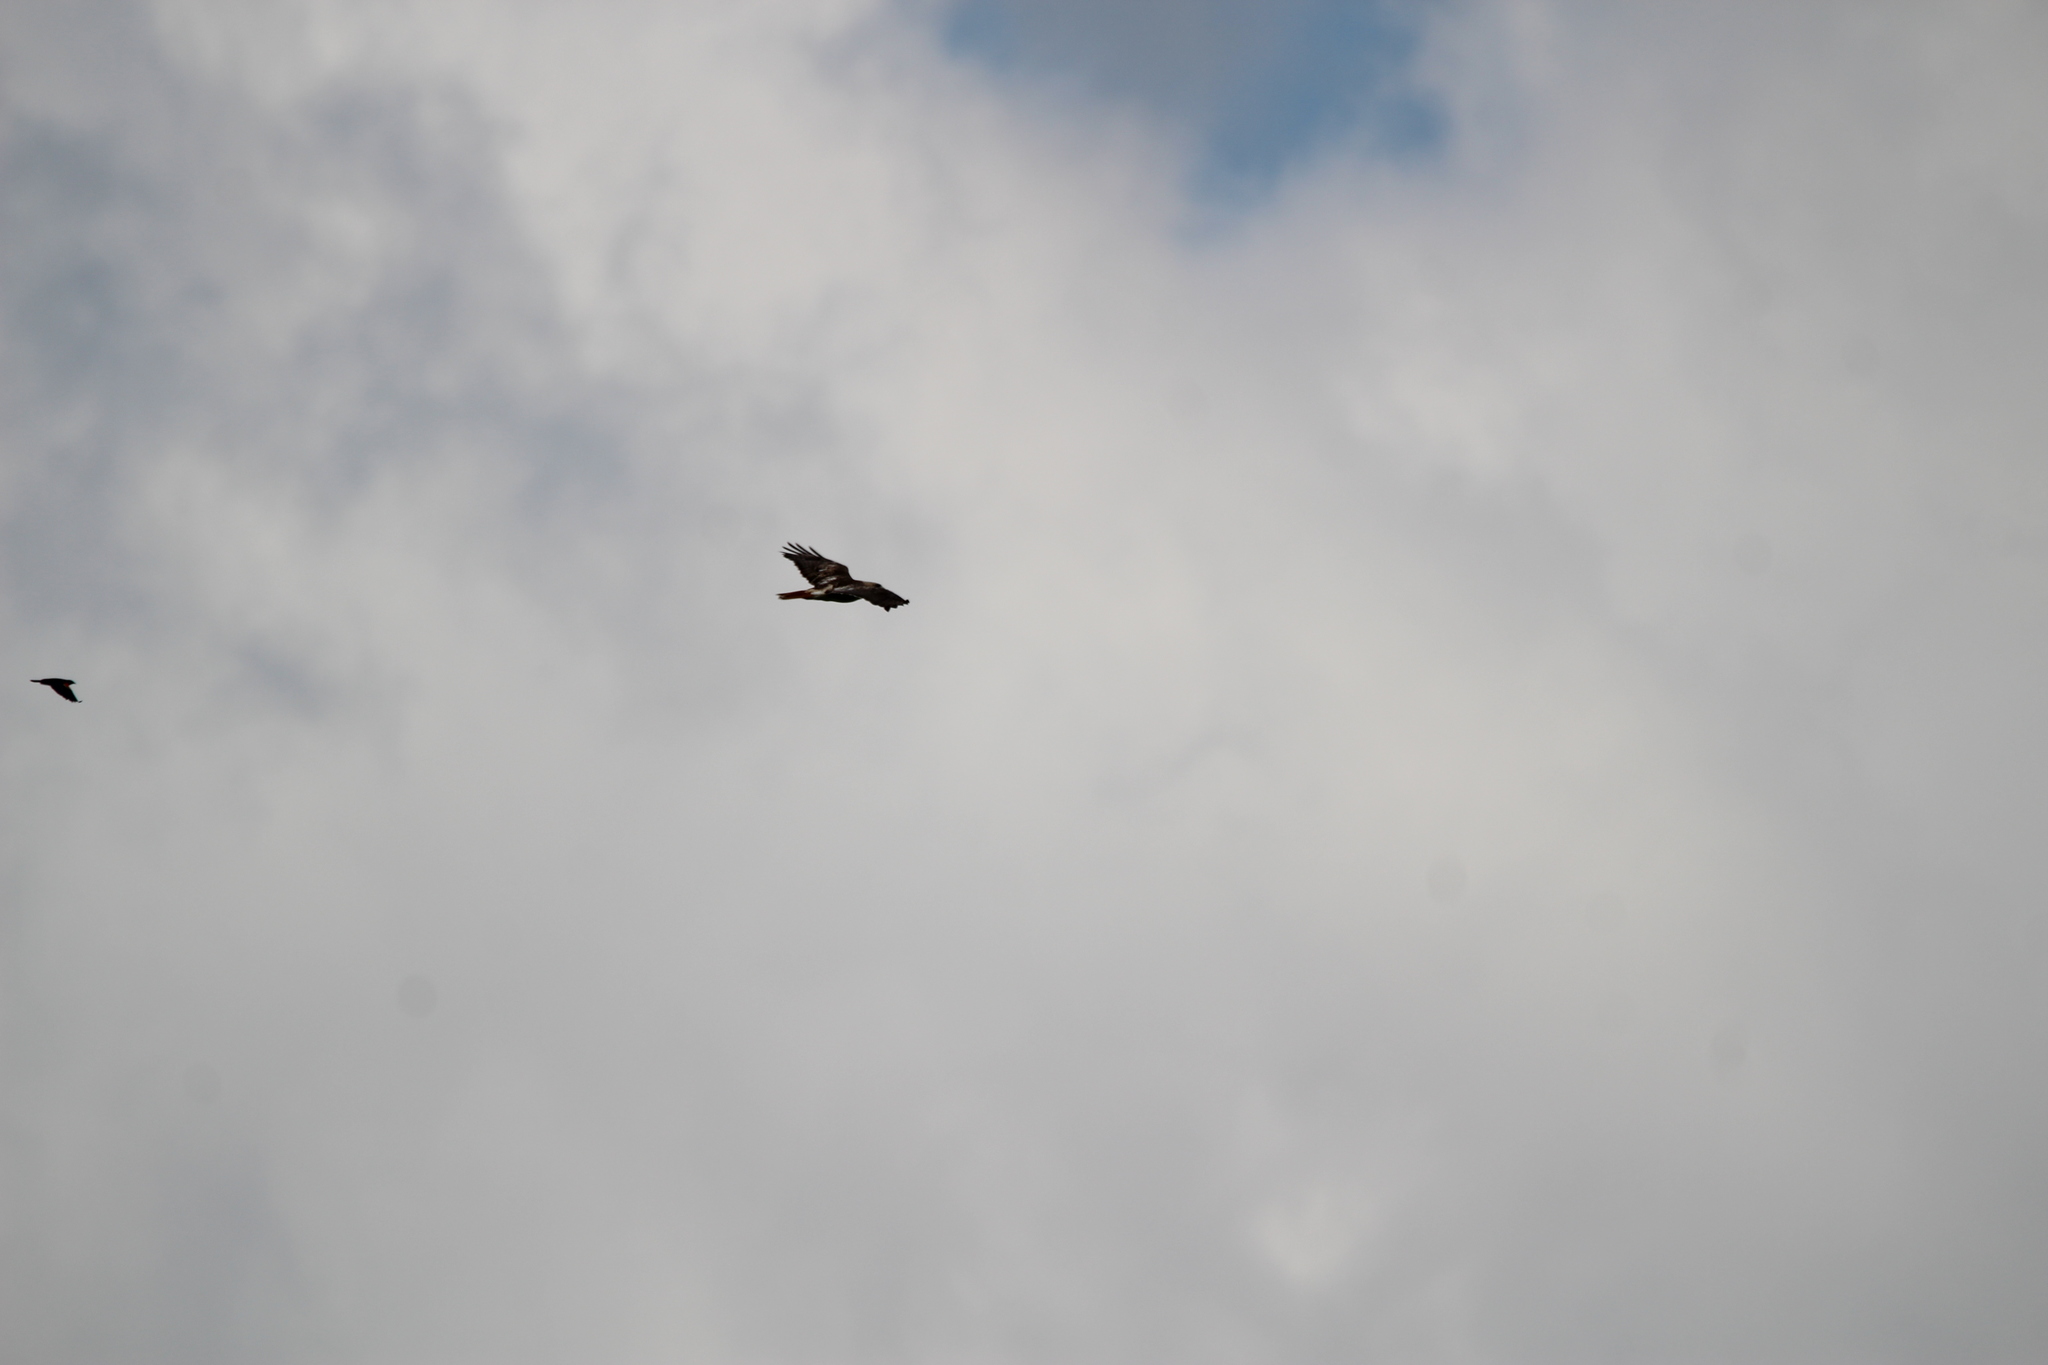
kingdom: Animalia
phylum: Chordata
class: Aves
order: Accipitriformes
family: Accipitridae
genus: Buteo
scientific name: Buteo jamaicensis
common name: Red-tailed hawk
